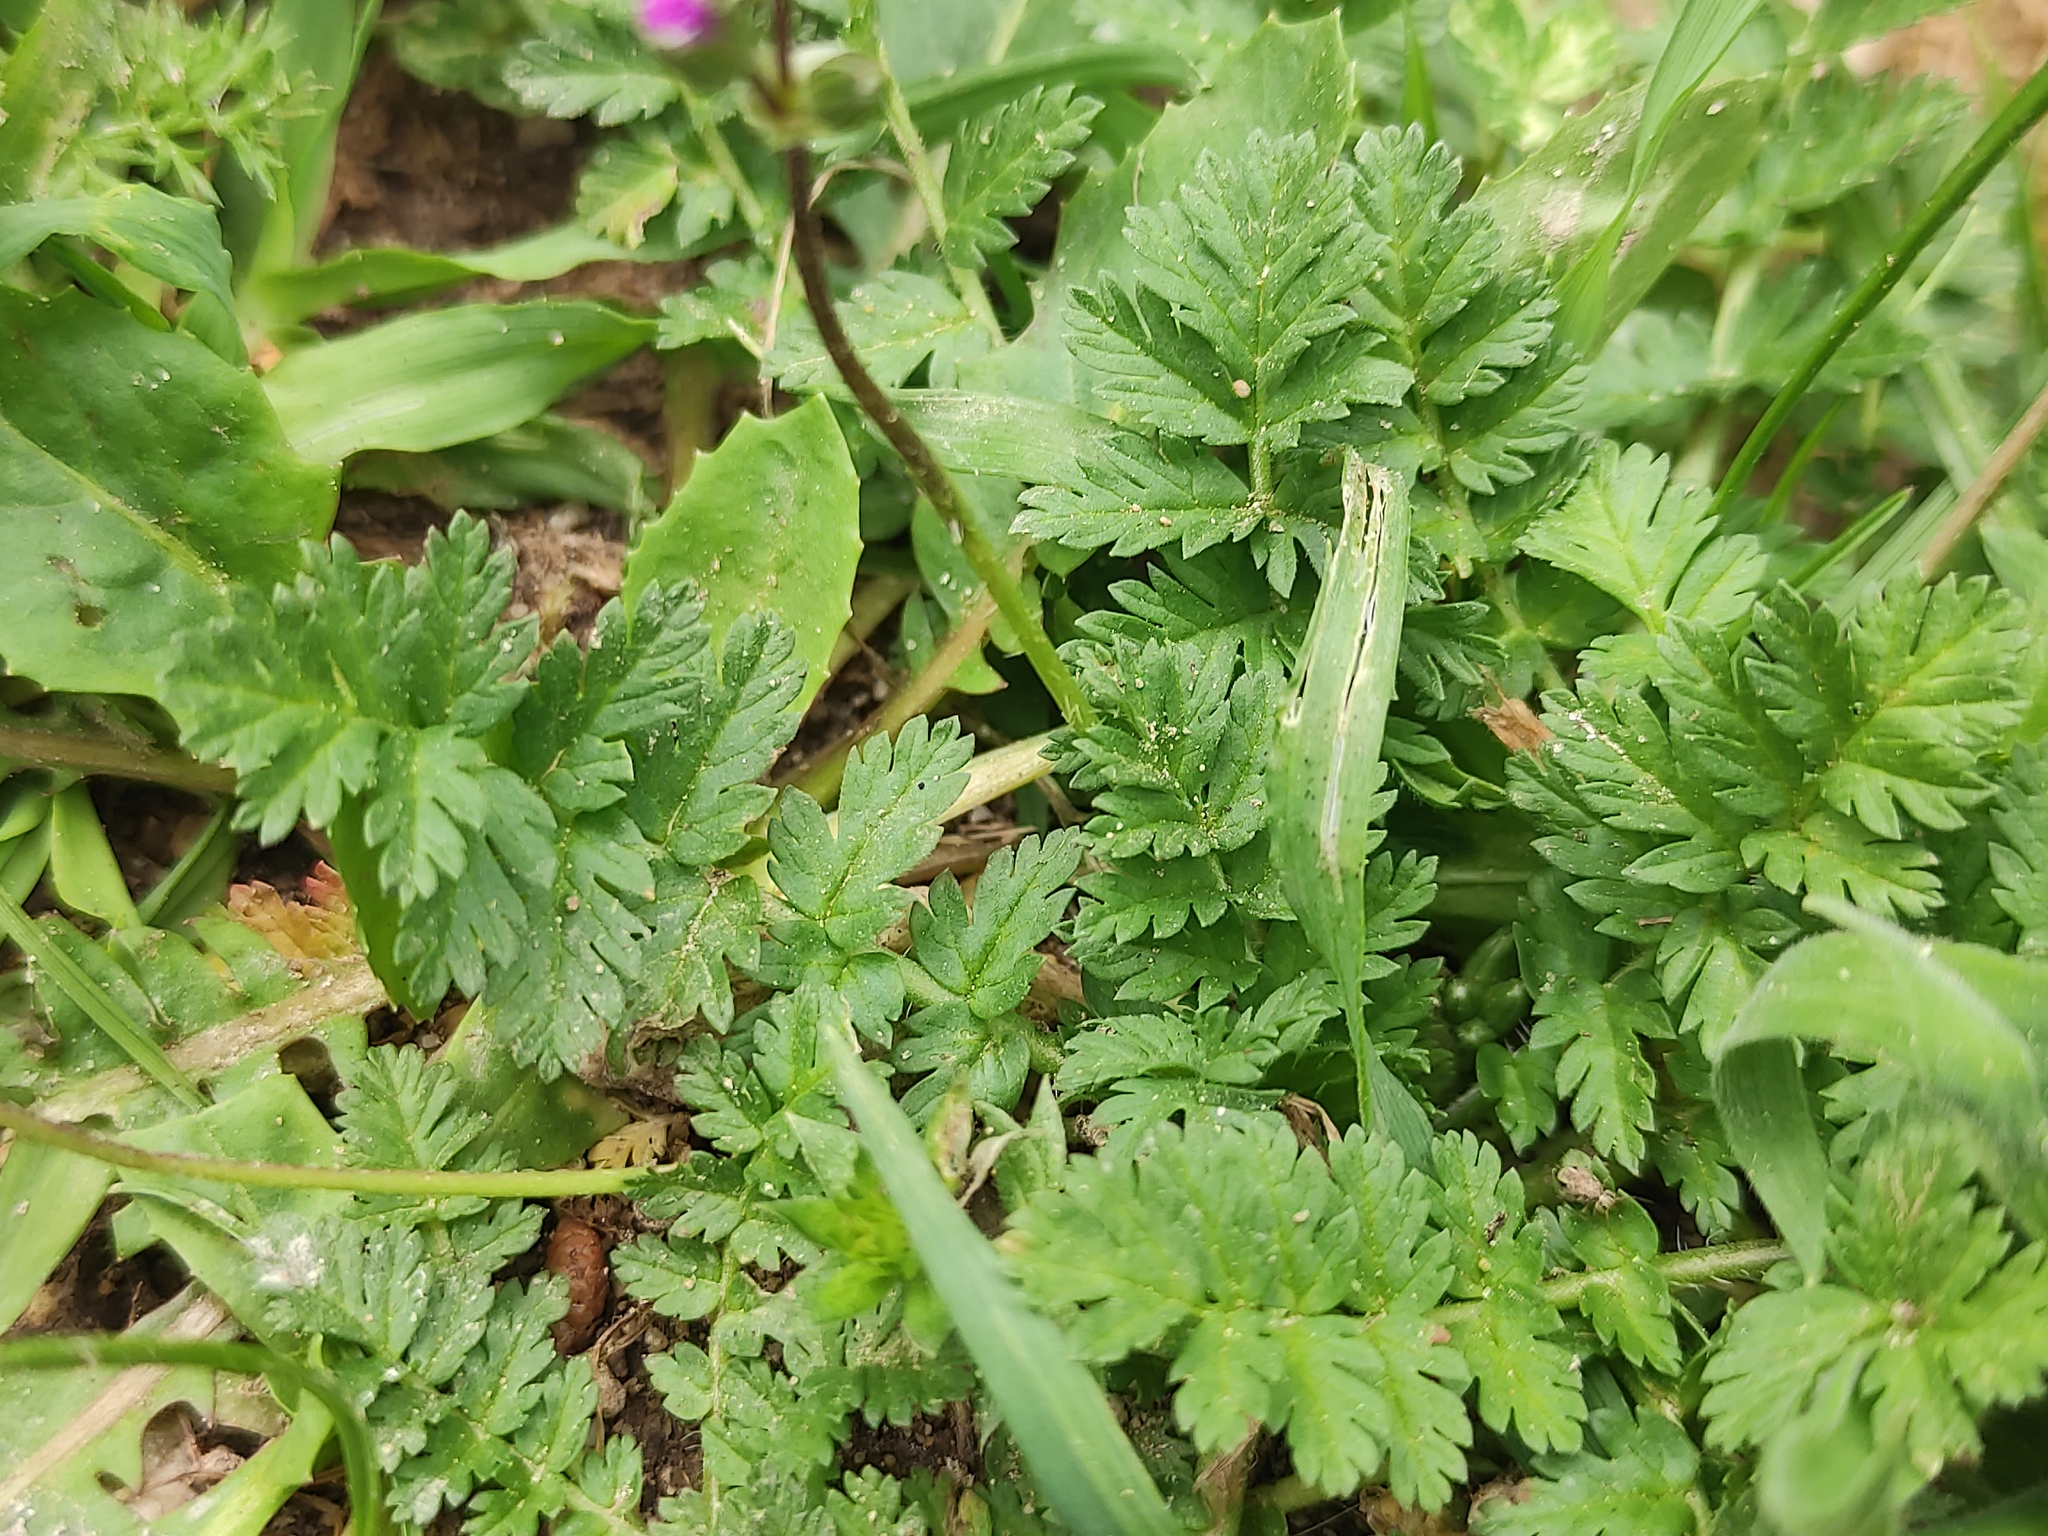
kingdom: Plantae
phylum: Tracheophyta
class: Magnoliopsida
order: Geraniales
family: Geraniaceae
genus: Erodium
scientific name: Erodium acaule
